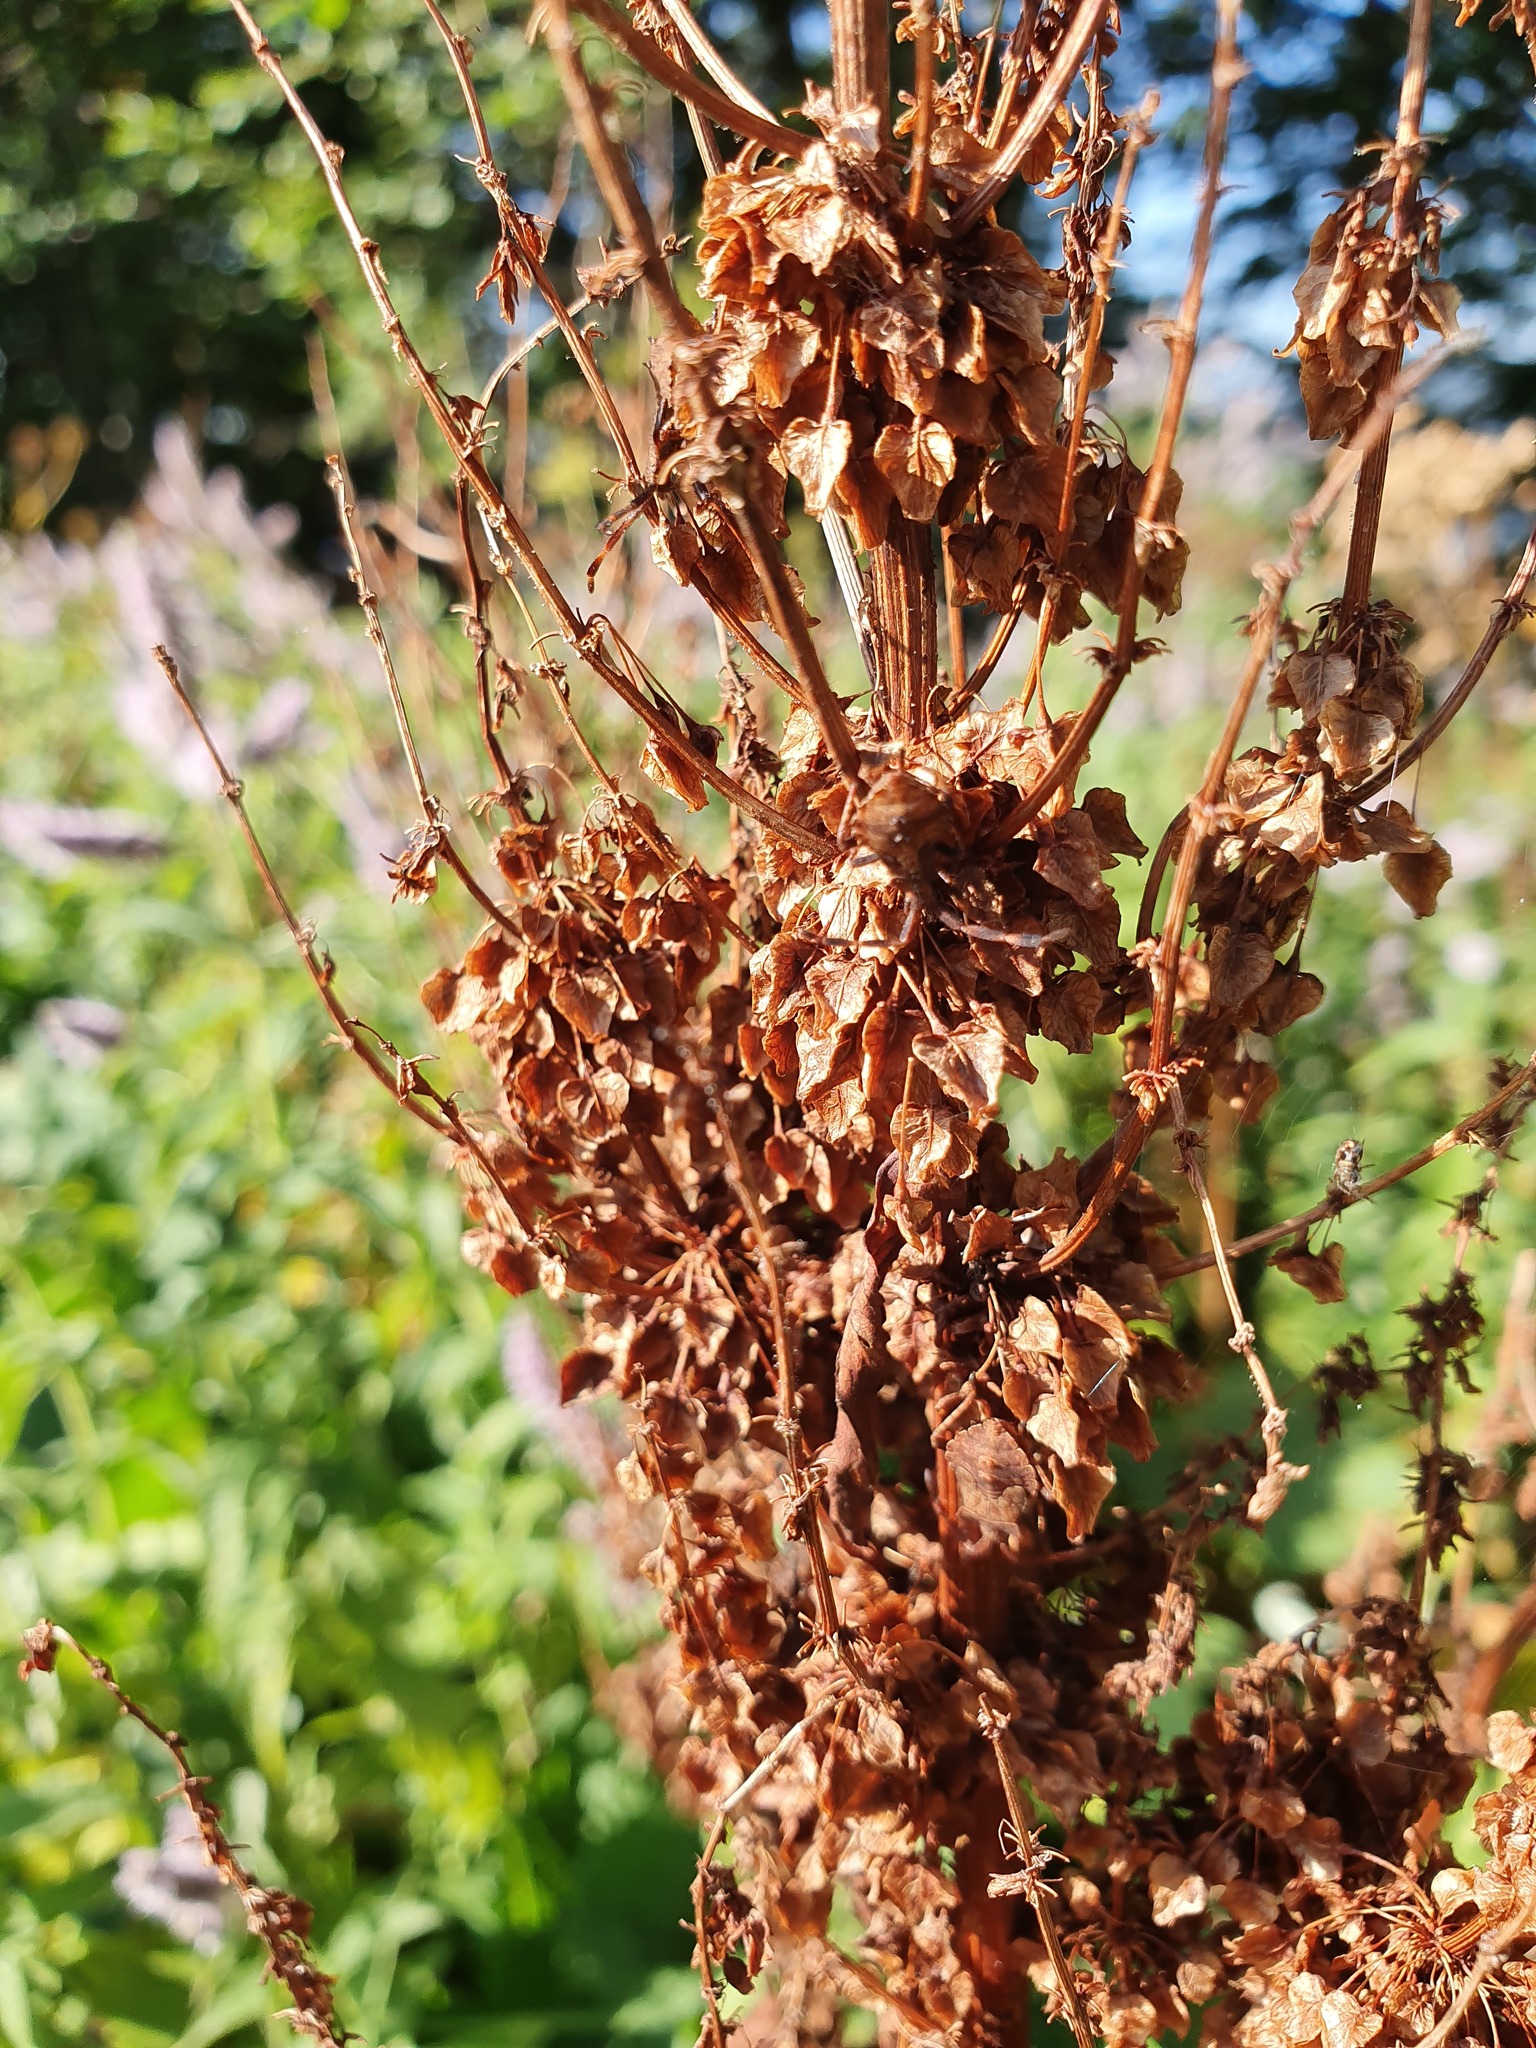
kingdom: Plantae
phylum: Tracheophyta
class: Magnoliopsida
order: Caryophyllales
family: Polygonaceae
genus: Rumex
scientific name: Rumex alpinus
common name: Alpine dock
